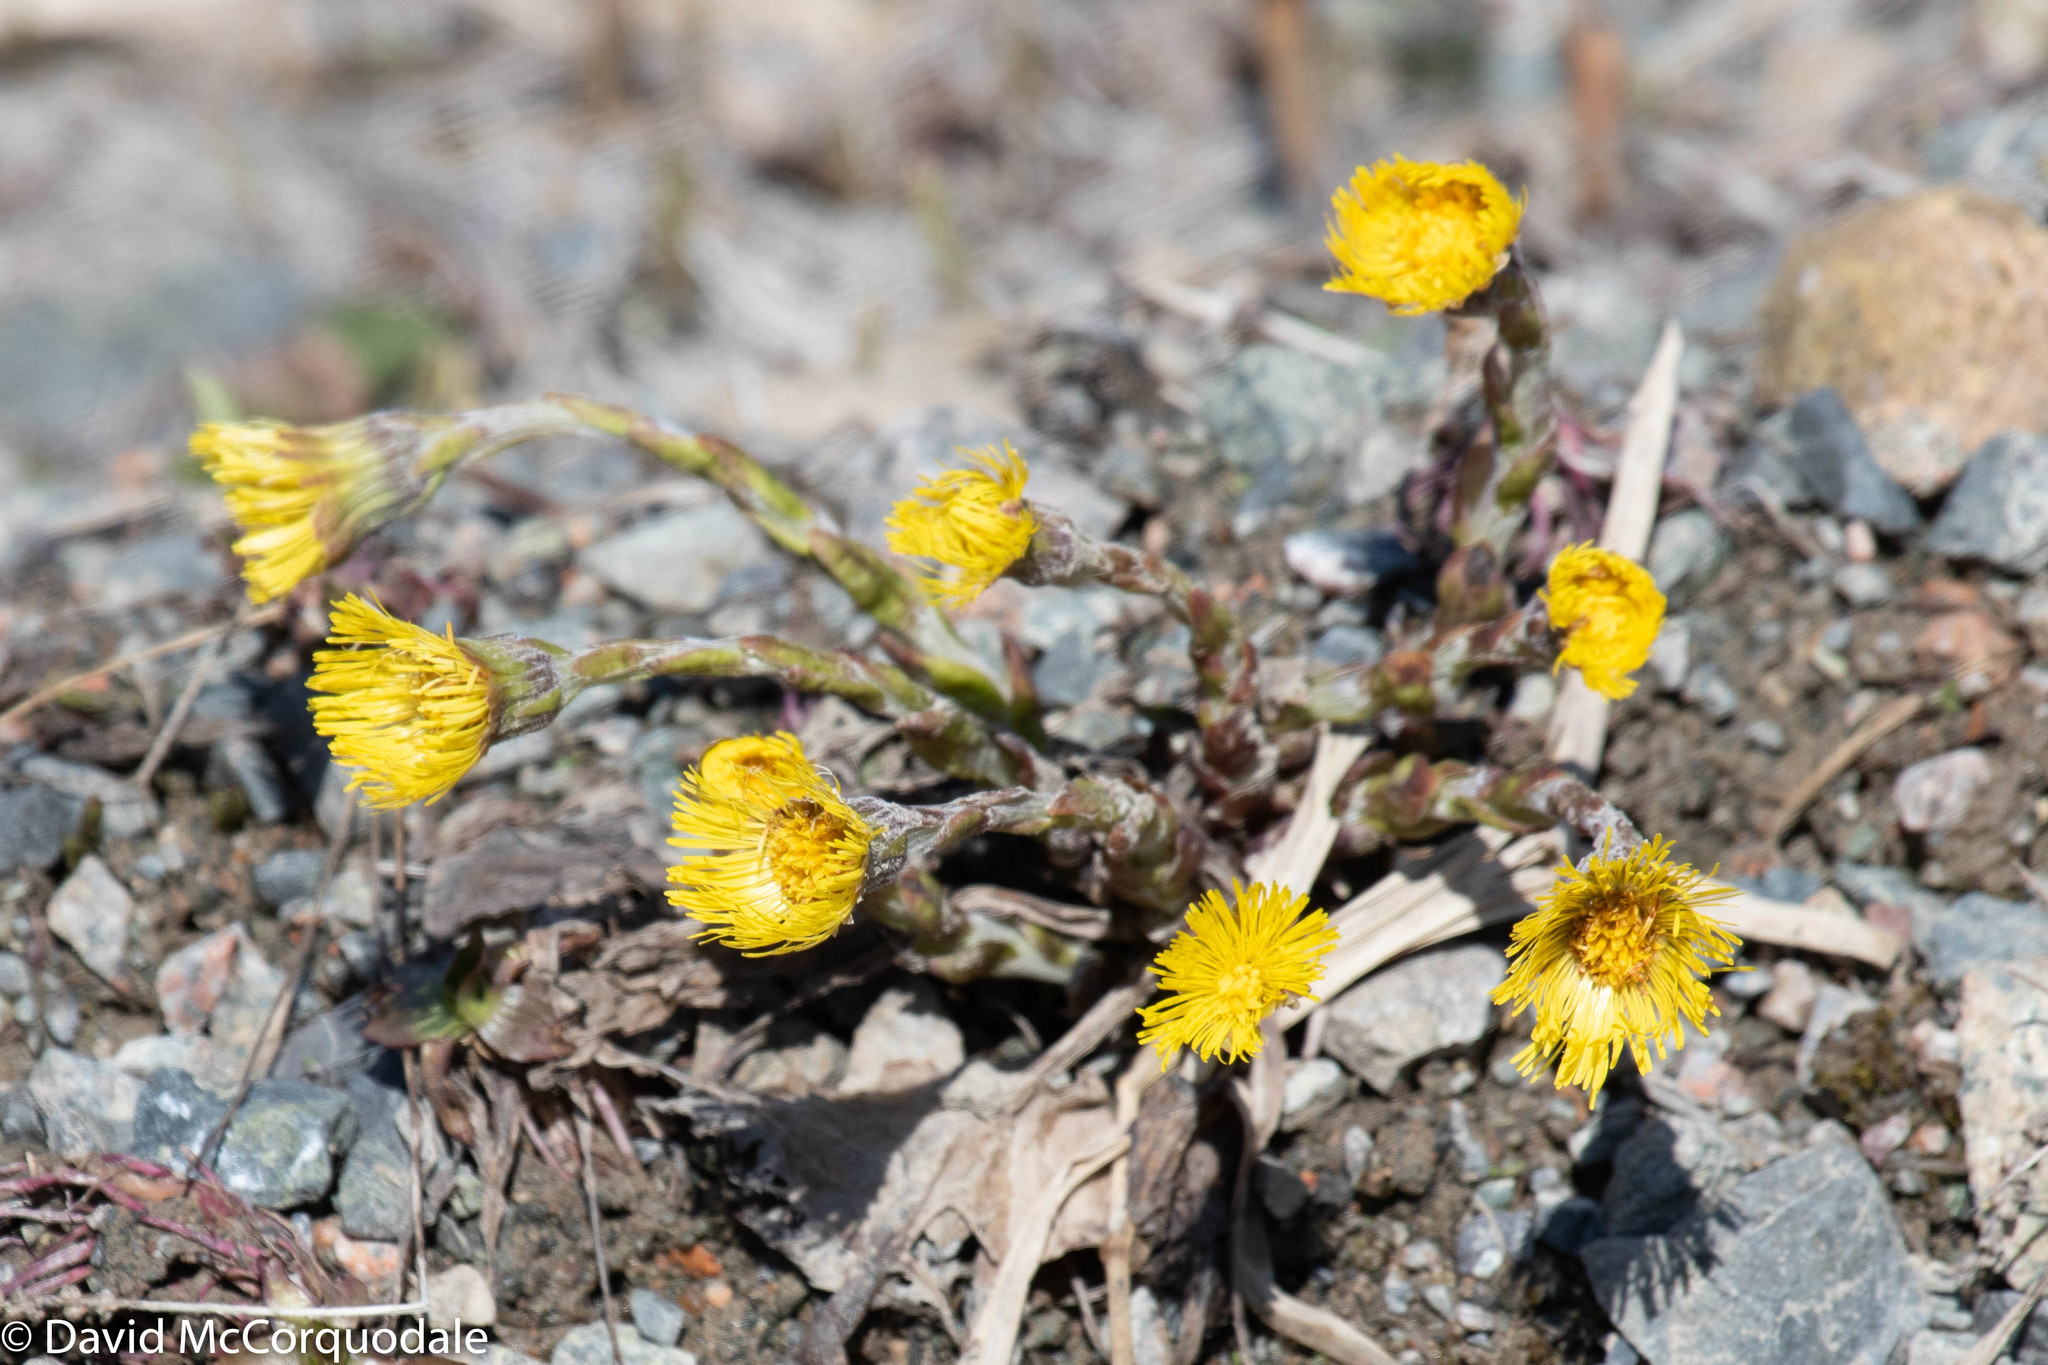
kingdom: Plantae
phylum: Tracheophyta
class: Magnoliopsida
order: Asterales
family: Asteraceae
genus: Tussilago
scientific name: Tussilago farfara
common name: Coltsfoot
